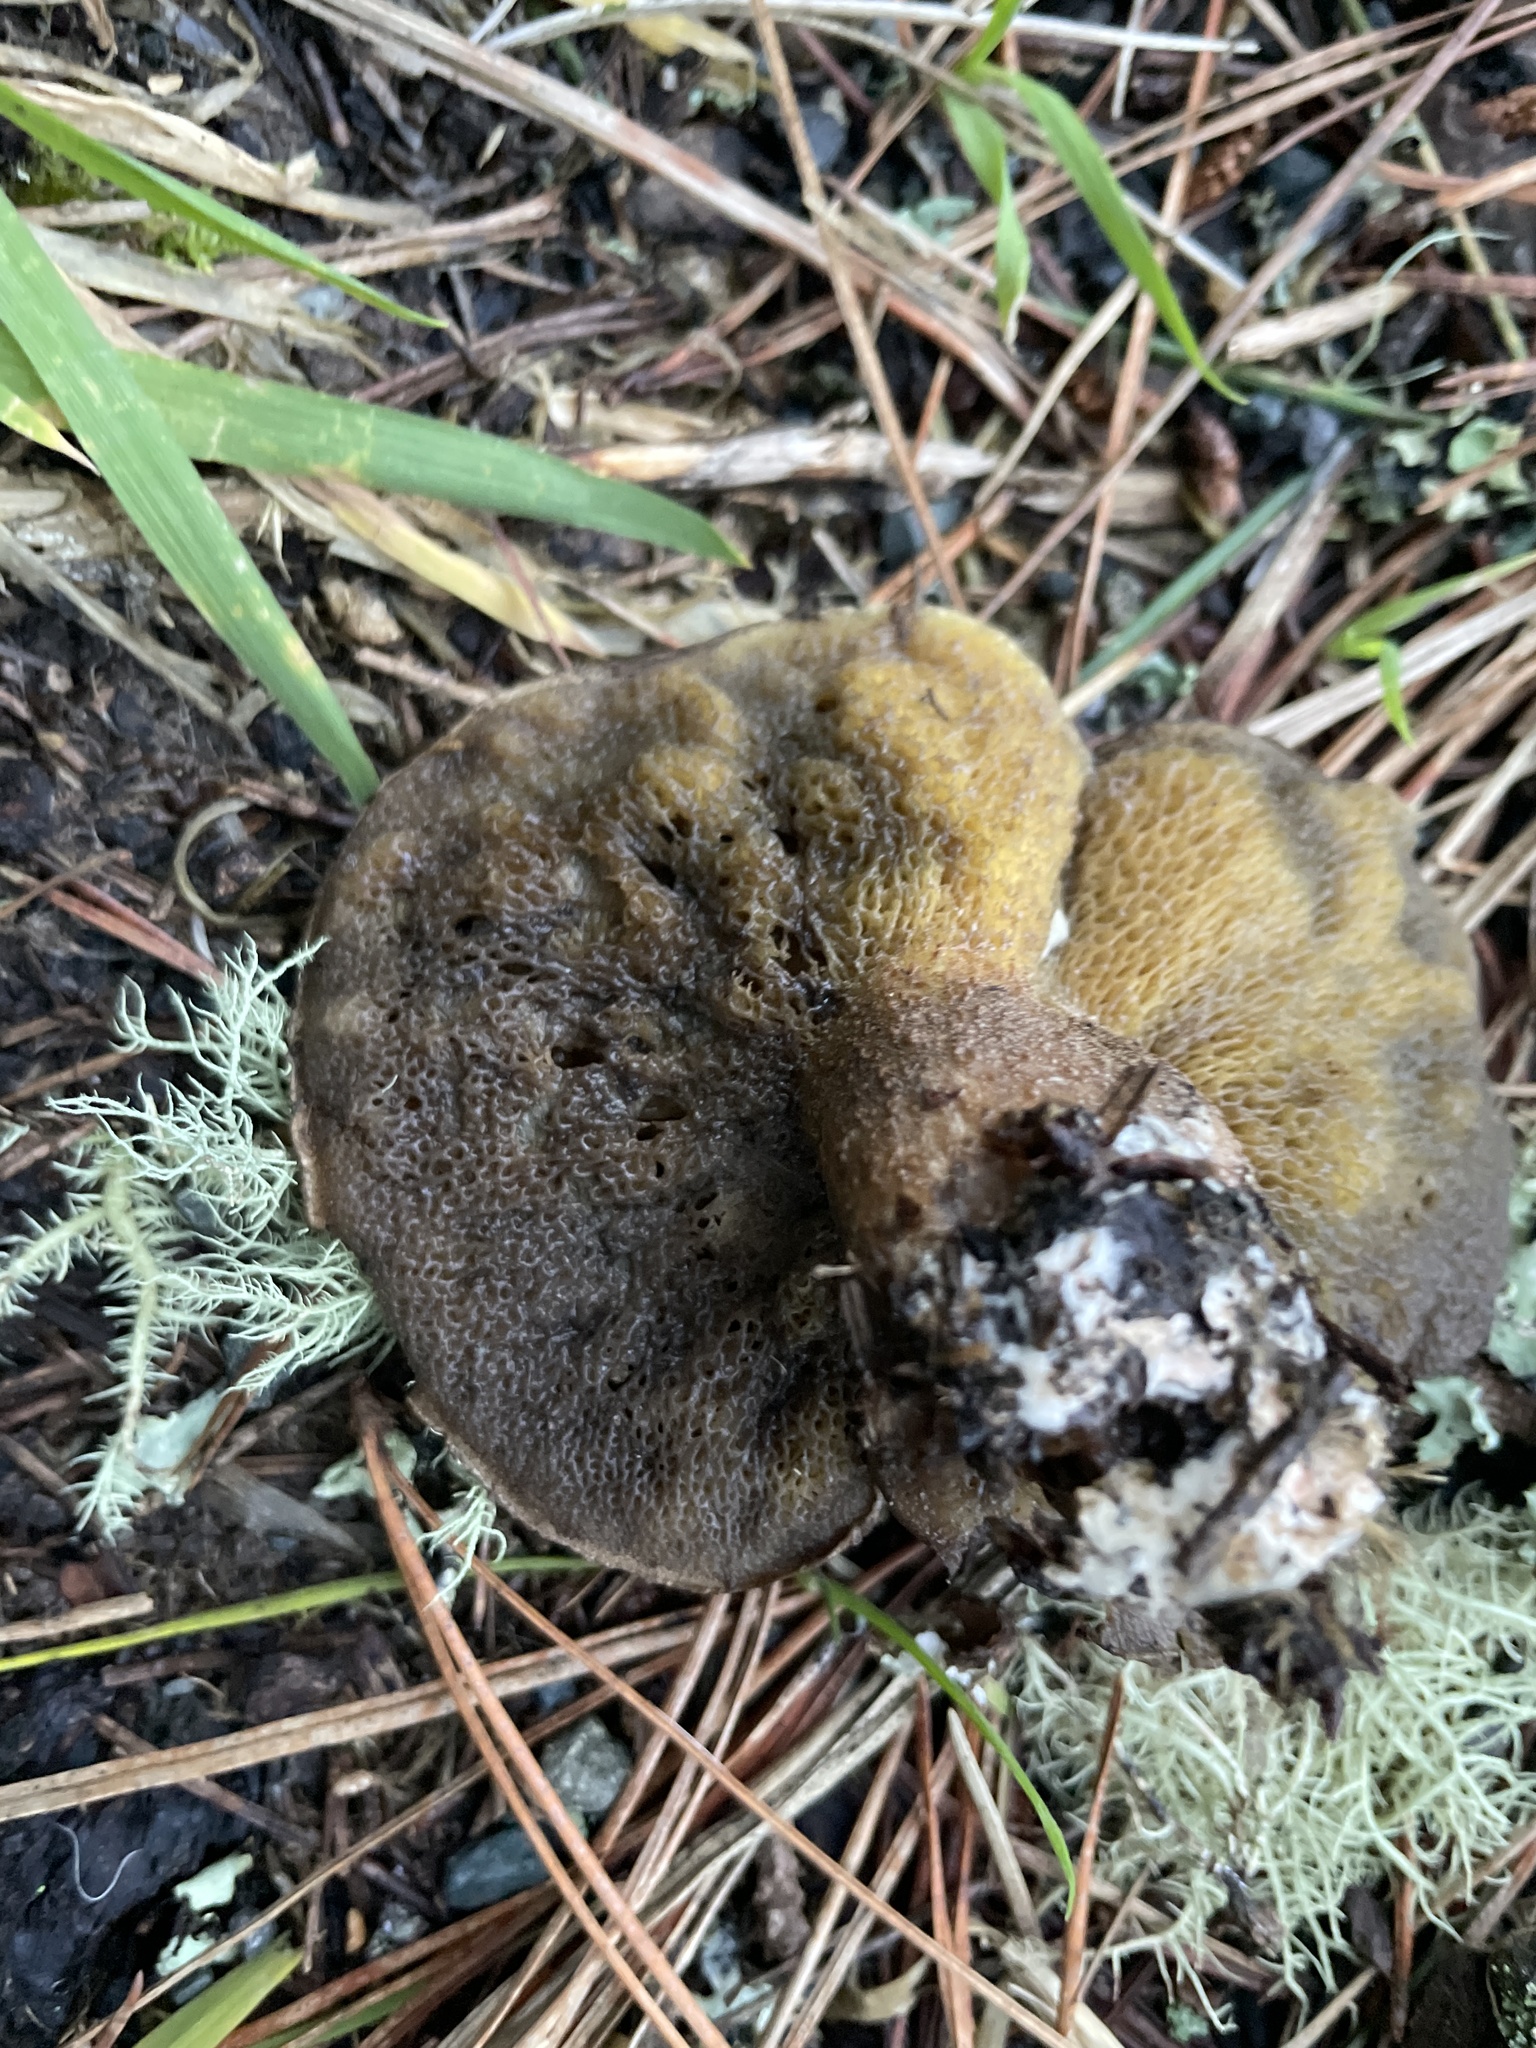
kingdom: Fungi
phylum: Basidiomycota
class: Agaricomycetes
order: Boletales
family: Suillaceae
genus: Suillus
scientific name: Suillus fuscotomentosus
